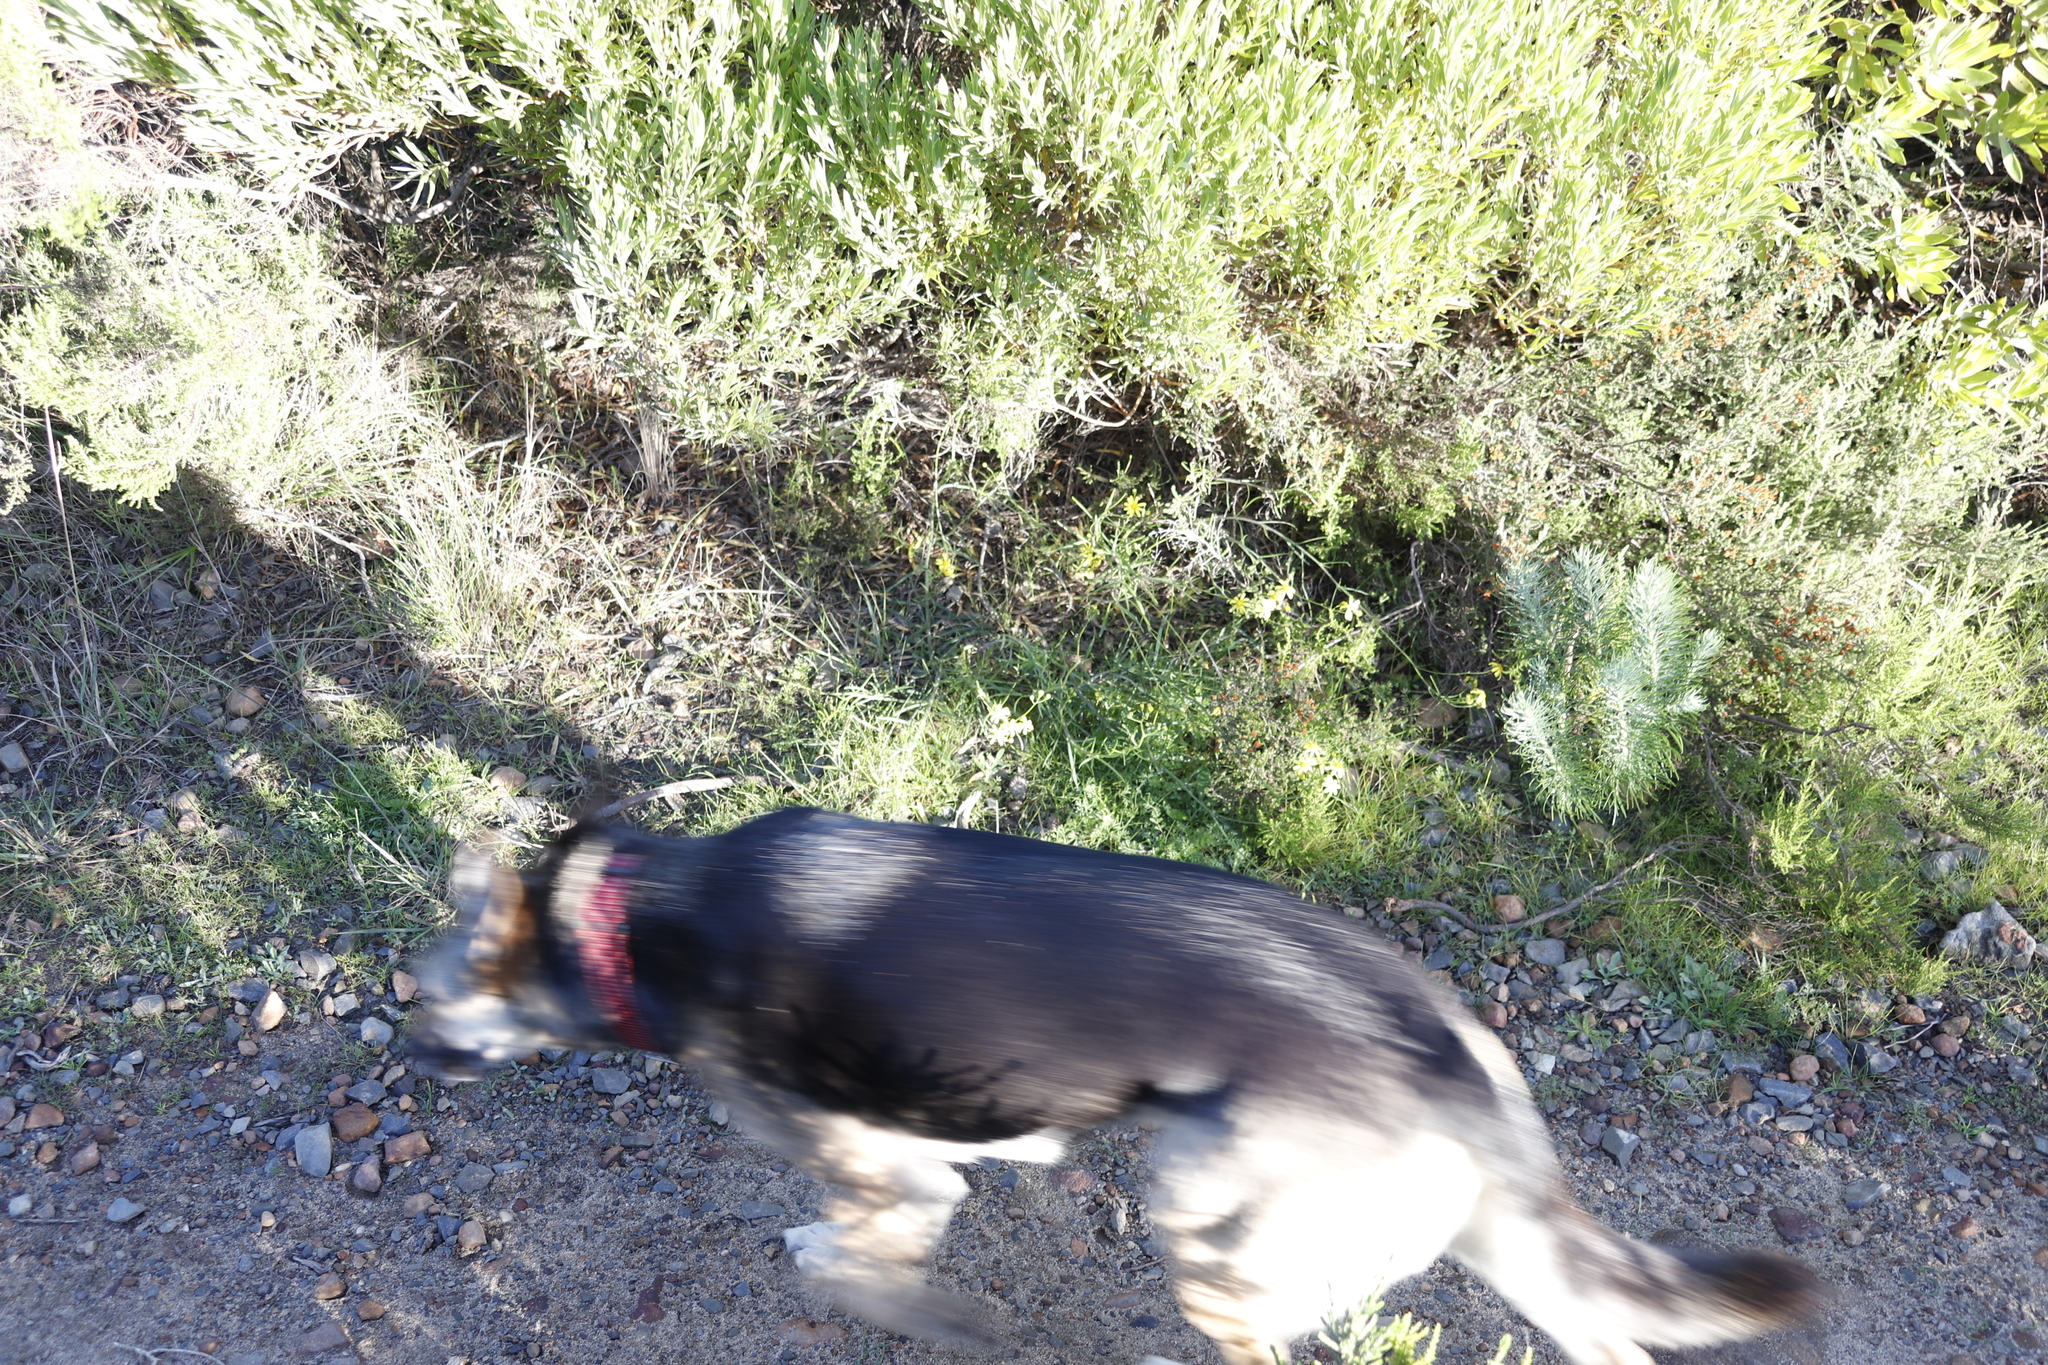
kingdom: Plantae
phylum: Tracheophyta
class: Magnoliopsida
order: Asterales
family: Asteraceae
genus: Senecio
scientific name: Senecio burchellii
